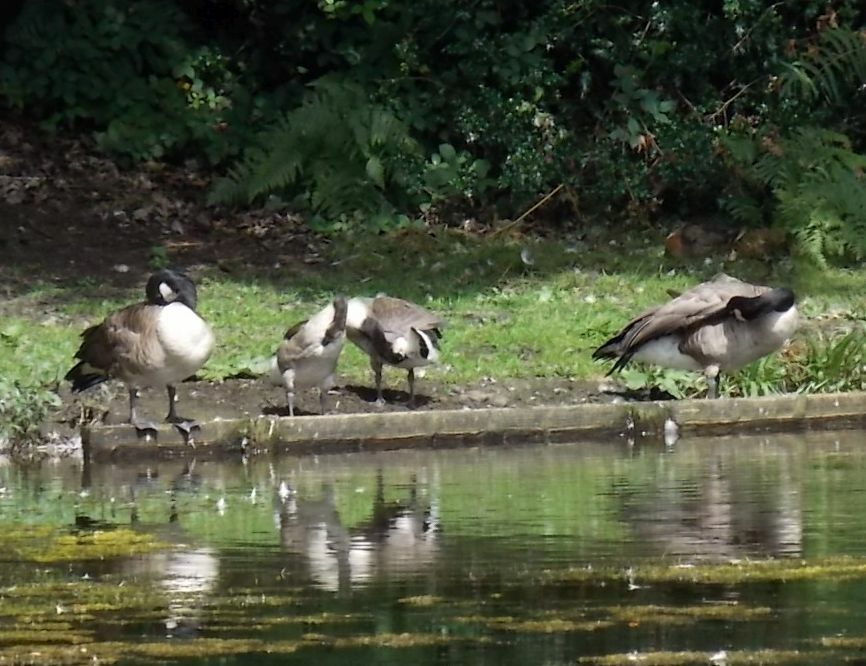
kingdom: Animalia
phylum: Chordata
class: Aves
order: Anseriformes
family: Anatidae
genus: Branta
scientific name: Branta canadensis
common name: Canada goose
